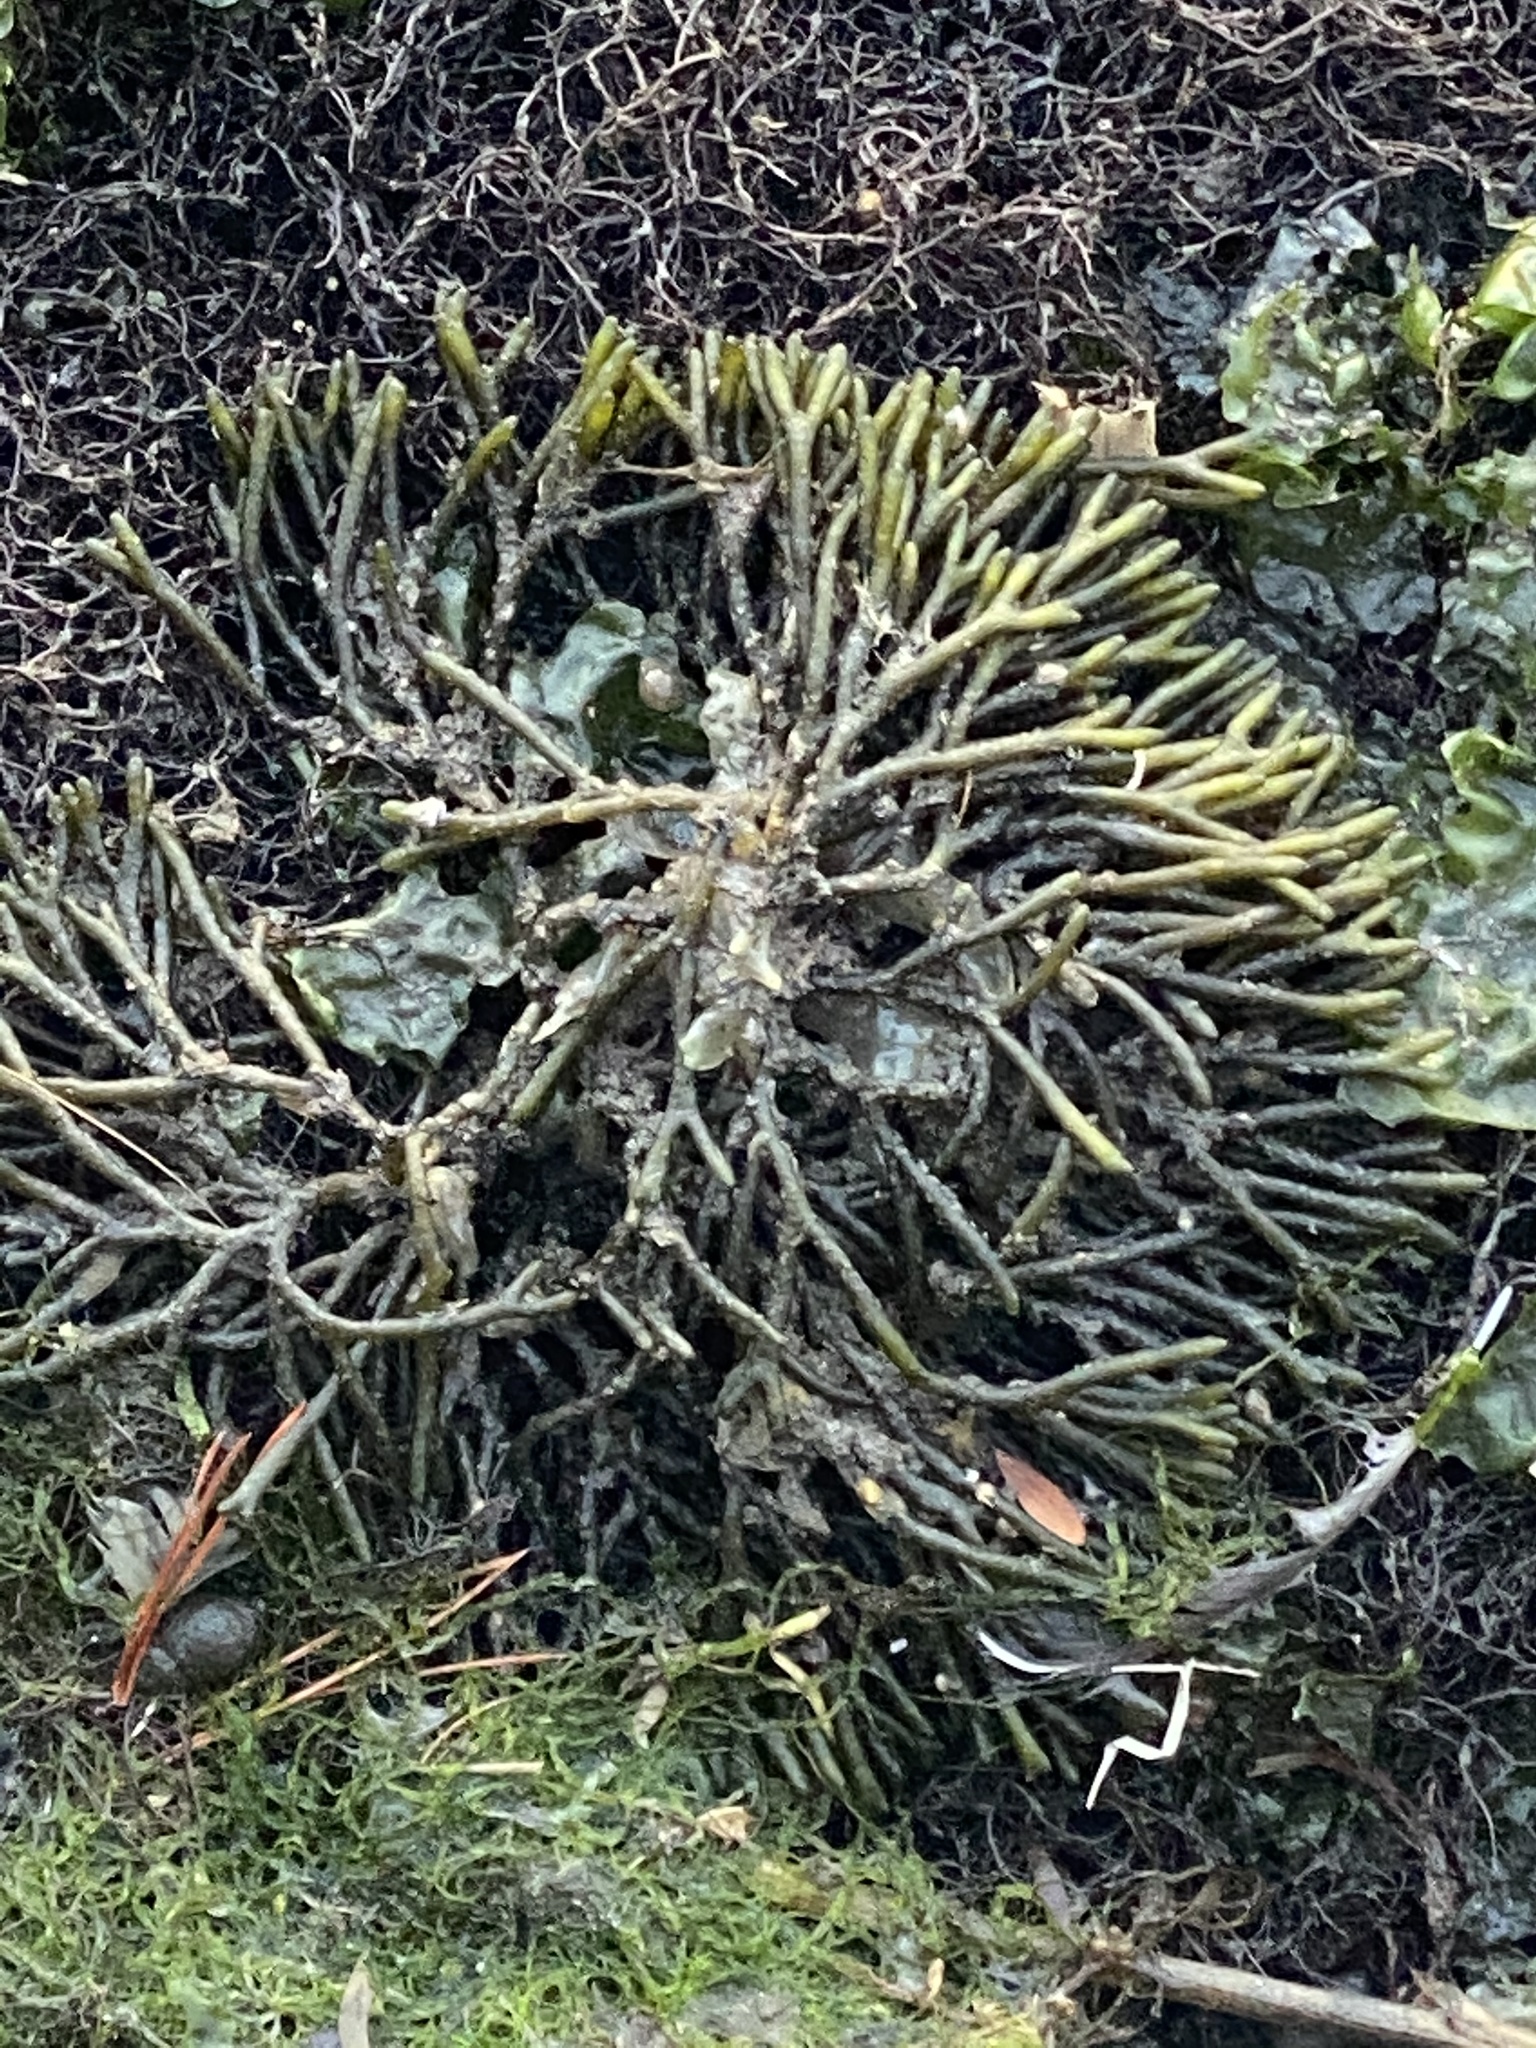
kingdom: Plantae
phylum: Chlorophyta
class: Ulvophyceae
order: Bryopsidales
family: Codiaceae
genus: Codium
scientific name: Codium fragile
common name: Dead man's fingers
